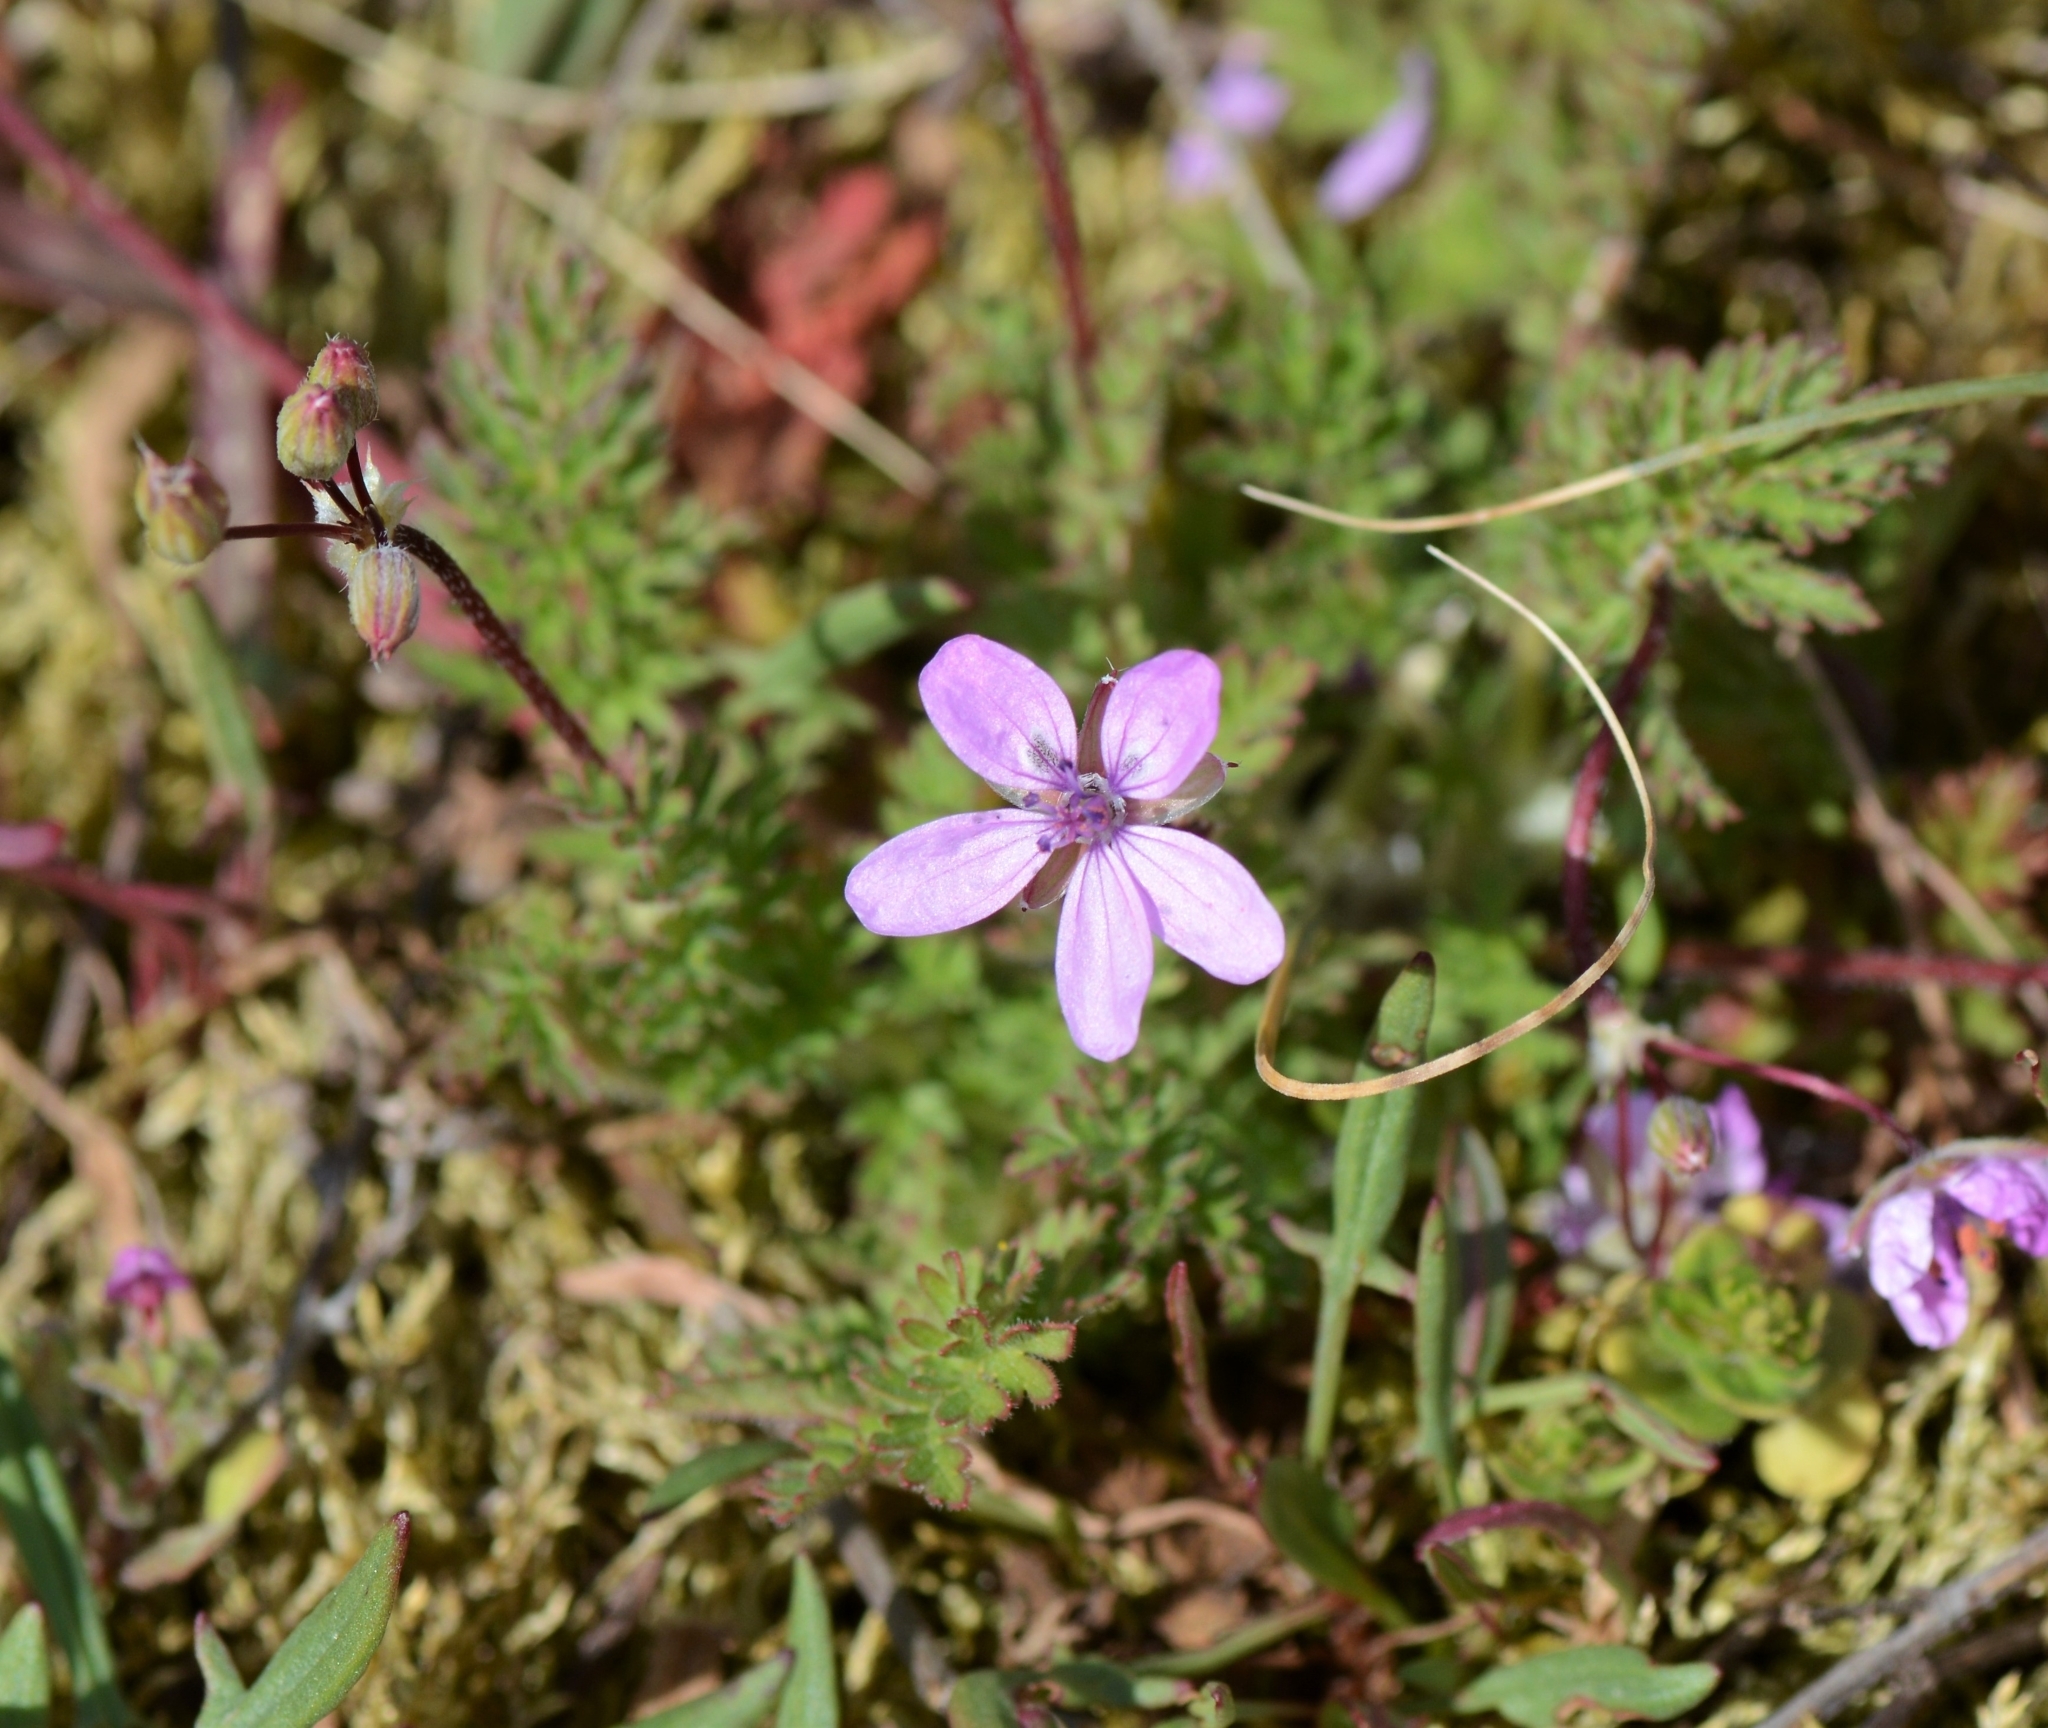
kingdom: Plantae
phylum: Tracheophyta
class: Magnoliopsida
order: Geraniales
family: Geraniaceae
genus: Erodium
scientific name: Erodium cicutarium
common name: Common stork's-bill
